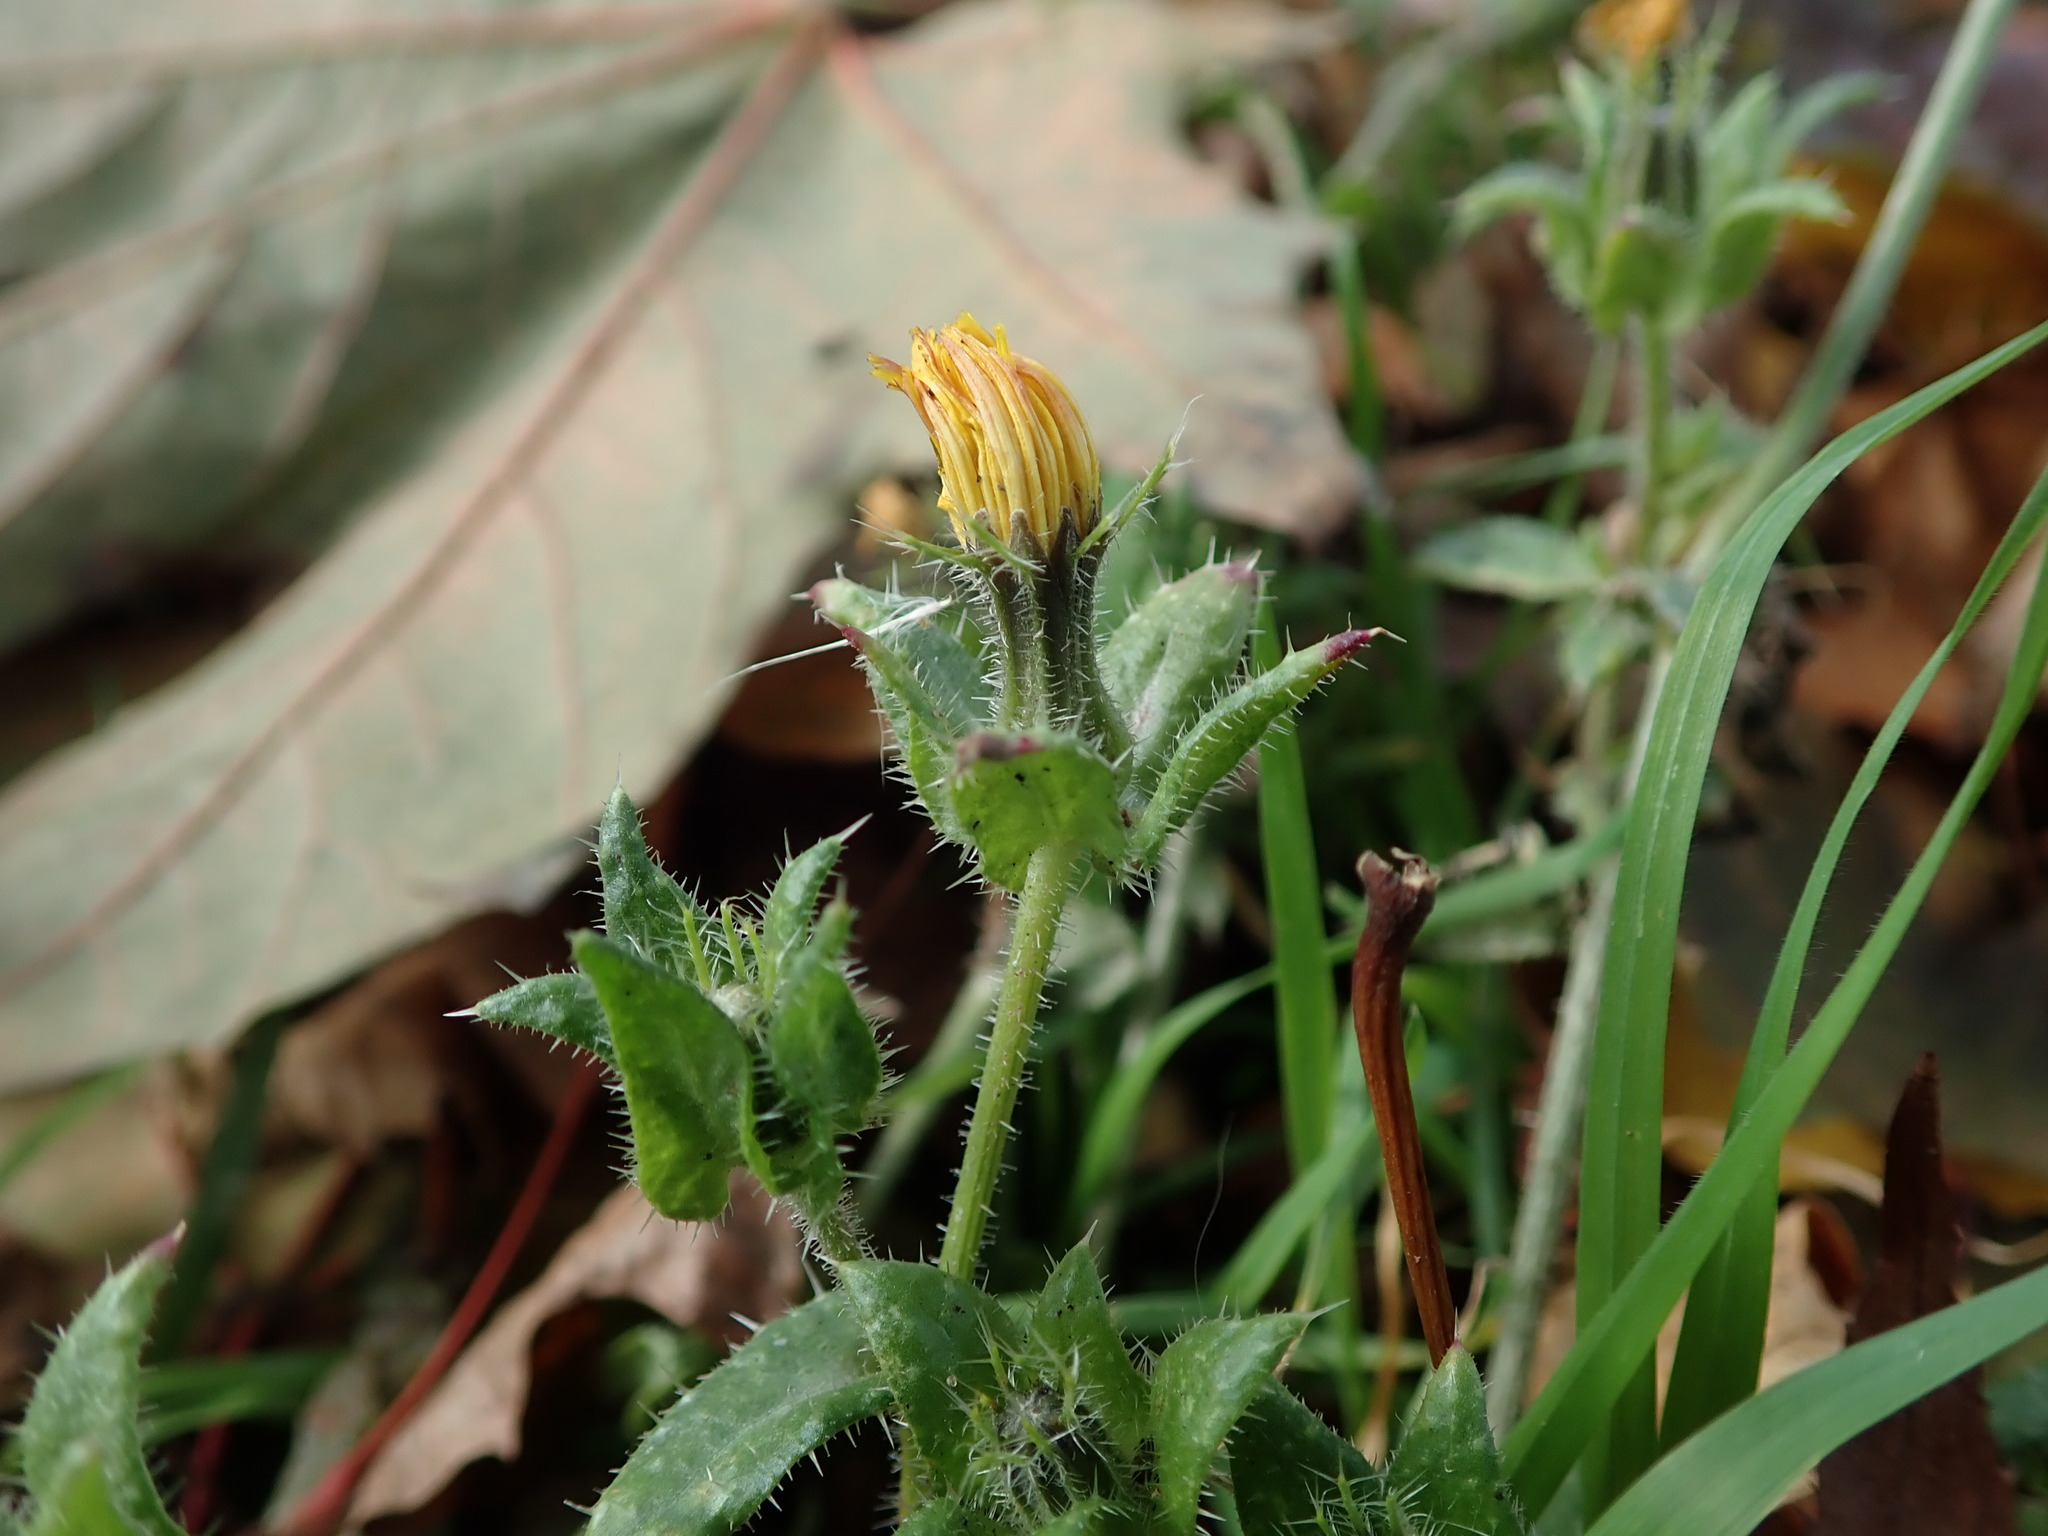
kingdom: Plantae
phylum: Tracheophyta
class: Magnoliopsida
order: Asterales
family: Asteraceae
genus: Helminthotheca
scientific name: Helminthotheca echioides
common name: Ox-tongue
